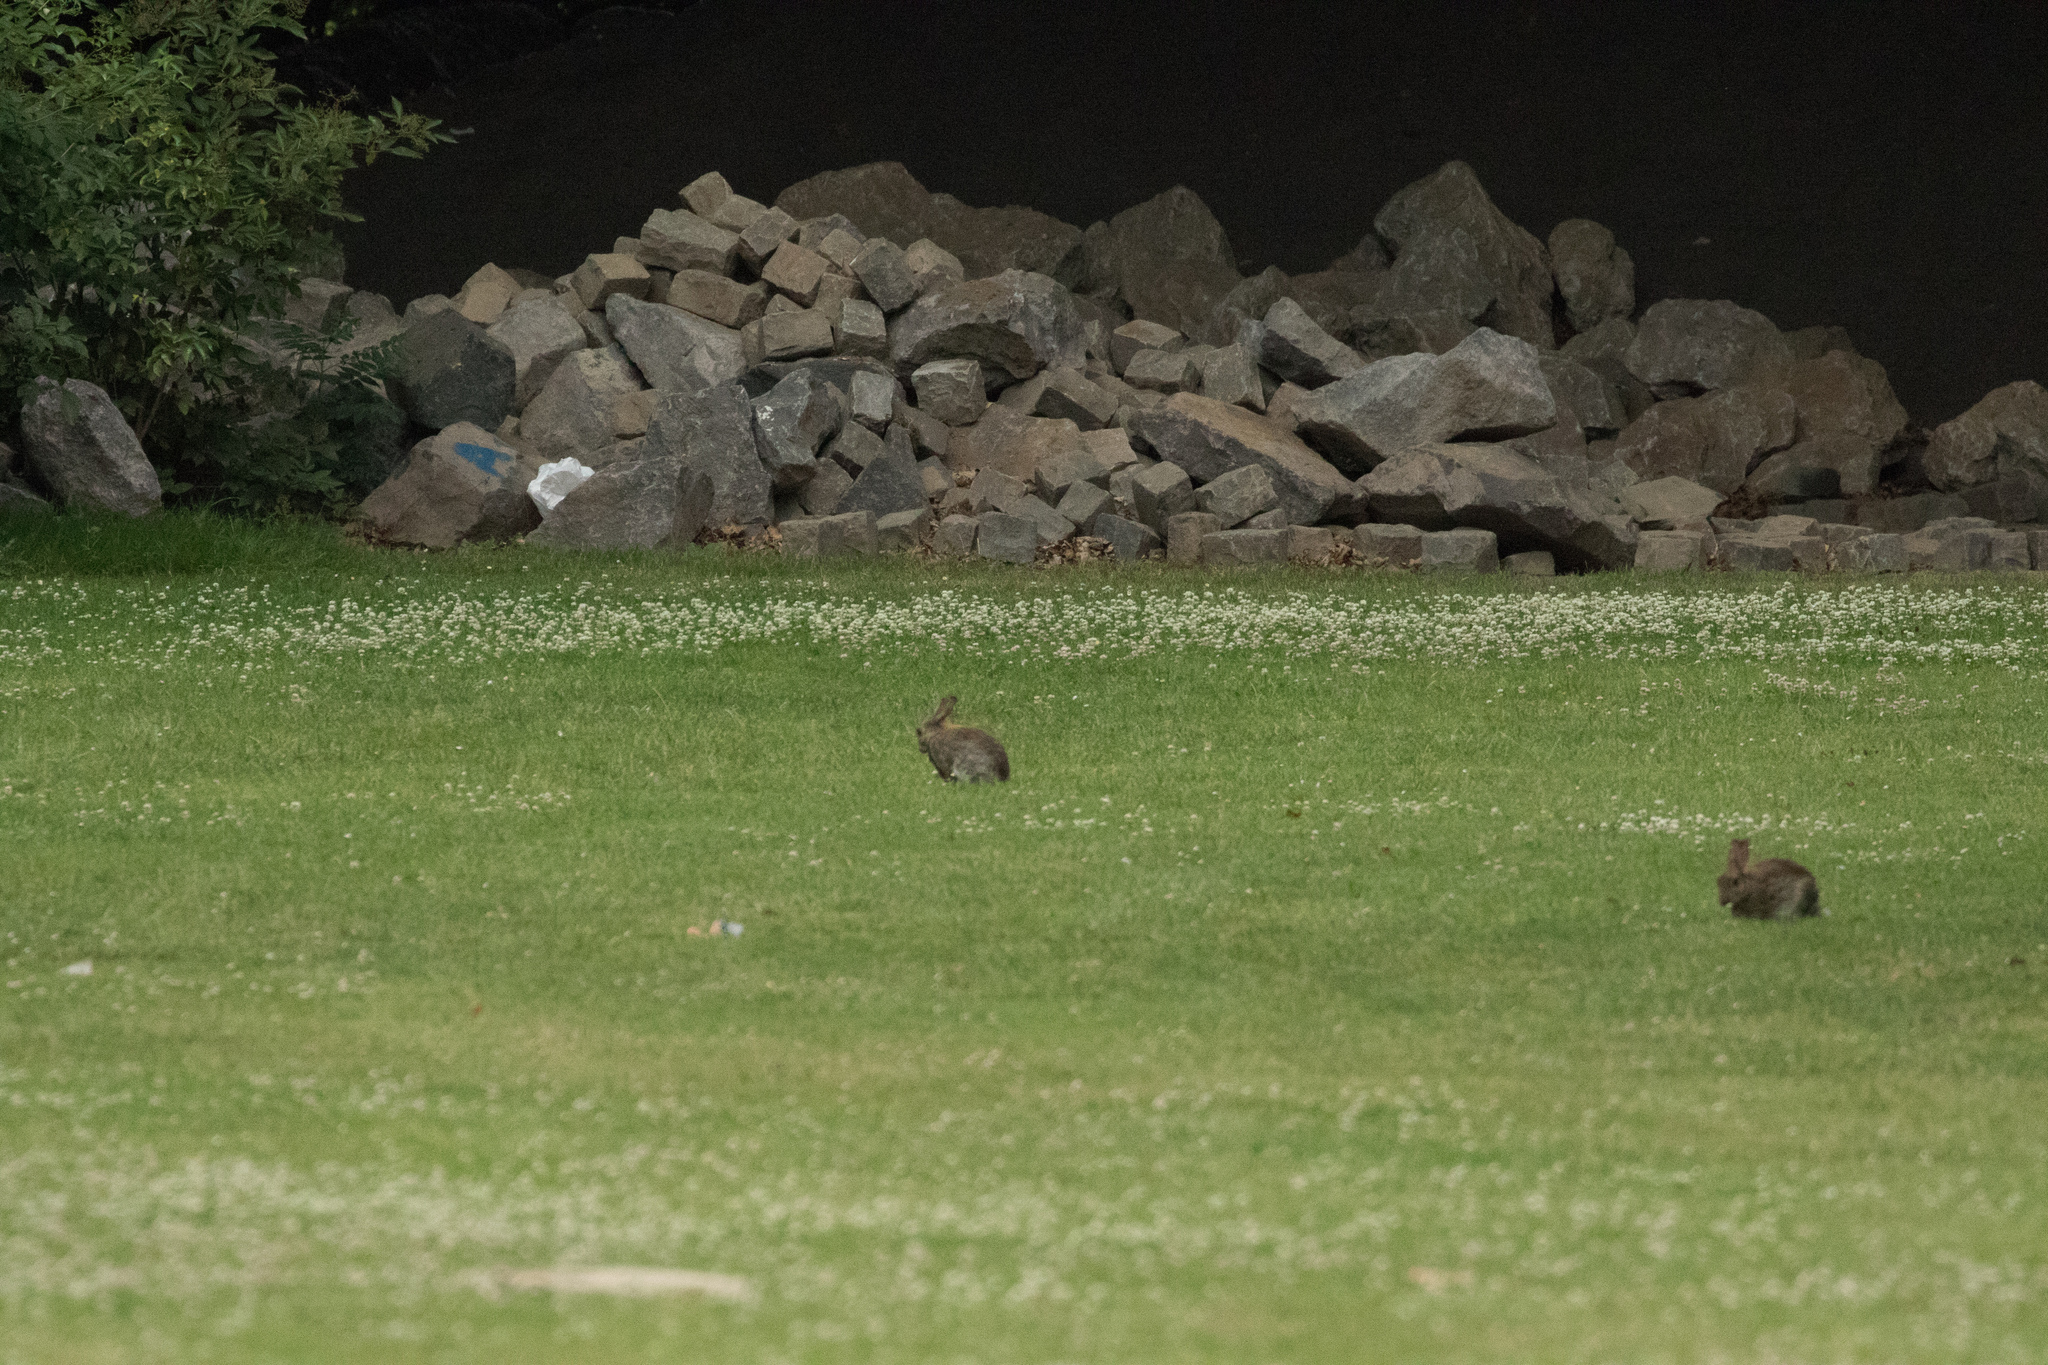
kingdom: Animalia
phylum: Chordata
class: Mammalia
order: Lagomorpha
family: Leporidae
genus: Oryctolagus
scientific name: Oryctolagus cuniculus
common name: European rabbit
